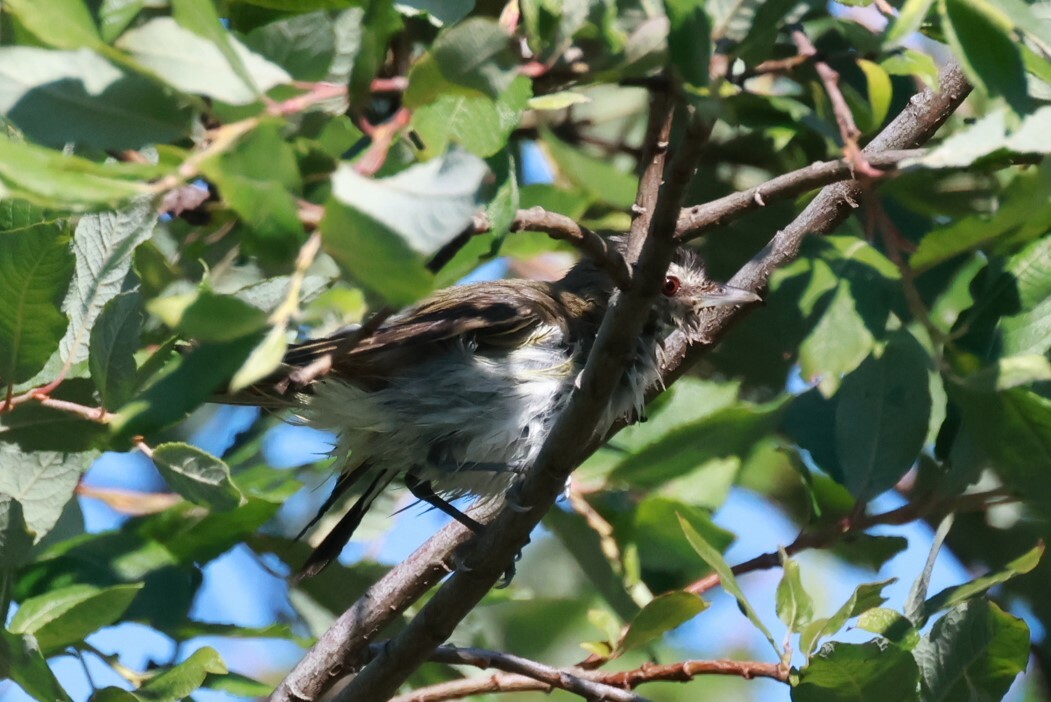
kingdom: Animalia
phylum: Chordata
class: Aves
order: Passeriformes
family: Vireonidae
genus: Vireo
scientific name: Vireo olivaceus
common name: Red-eyed vireo
